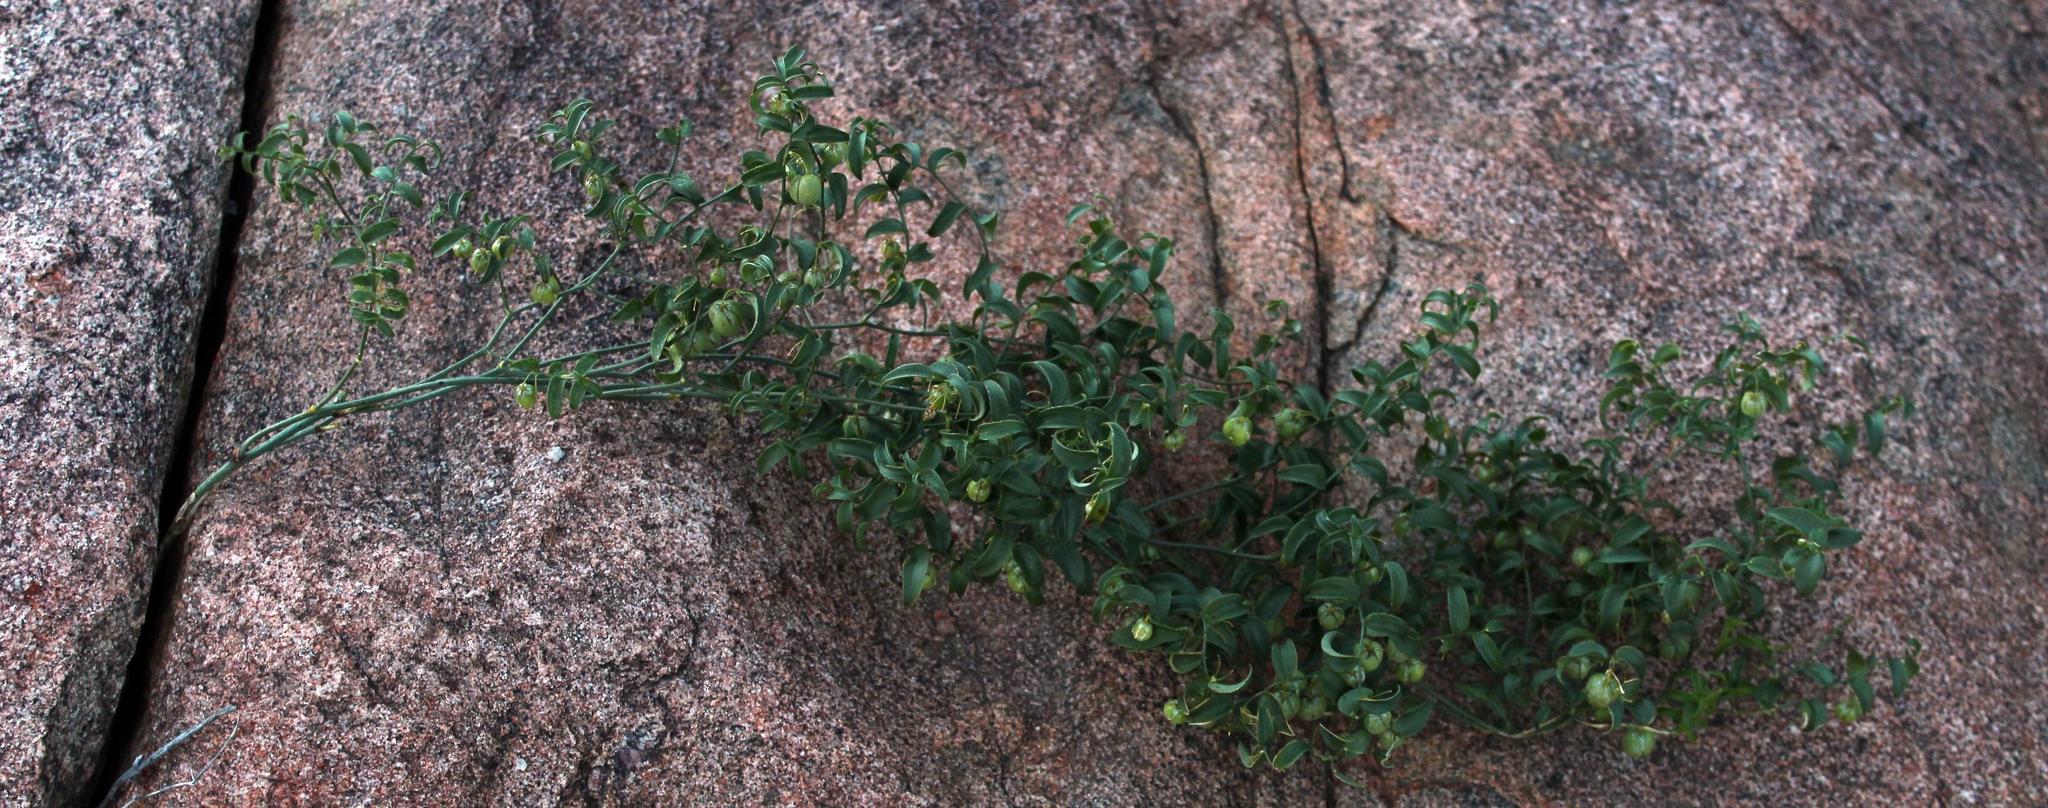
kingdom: Plantae
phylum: Tracheophyta
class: Liliopsida
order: Asparagales
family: Asparagaceae
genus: Asparagus
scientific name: Asparagus asparagoides
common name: African asparagus fern
